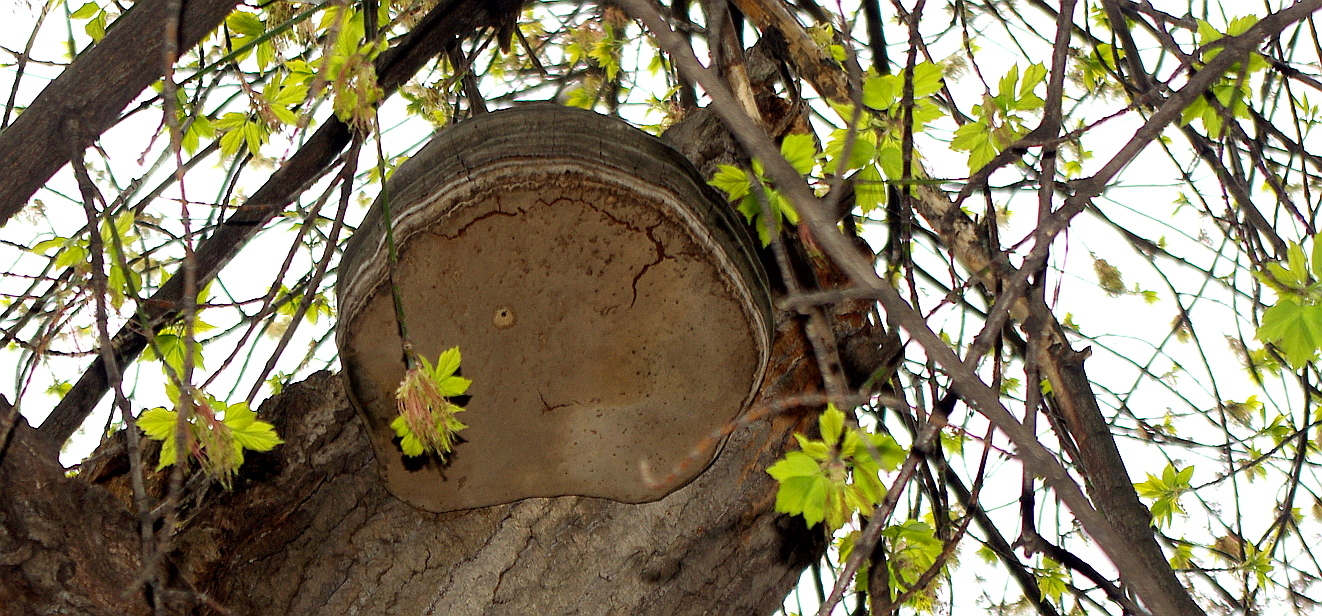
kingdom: Fungi
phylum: Basidiomycota
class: Agaricomycetes
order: Polyporales
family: Polyporaceae
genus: Fomes
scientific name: Fomes fomentarius
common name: Hoof fungus
